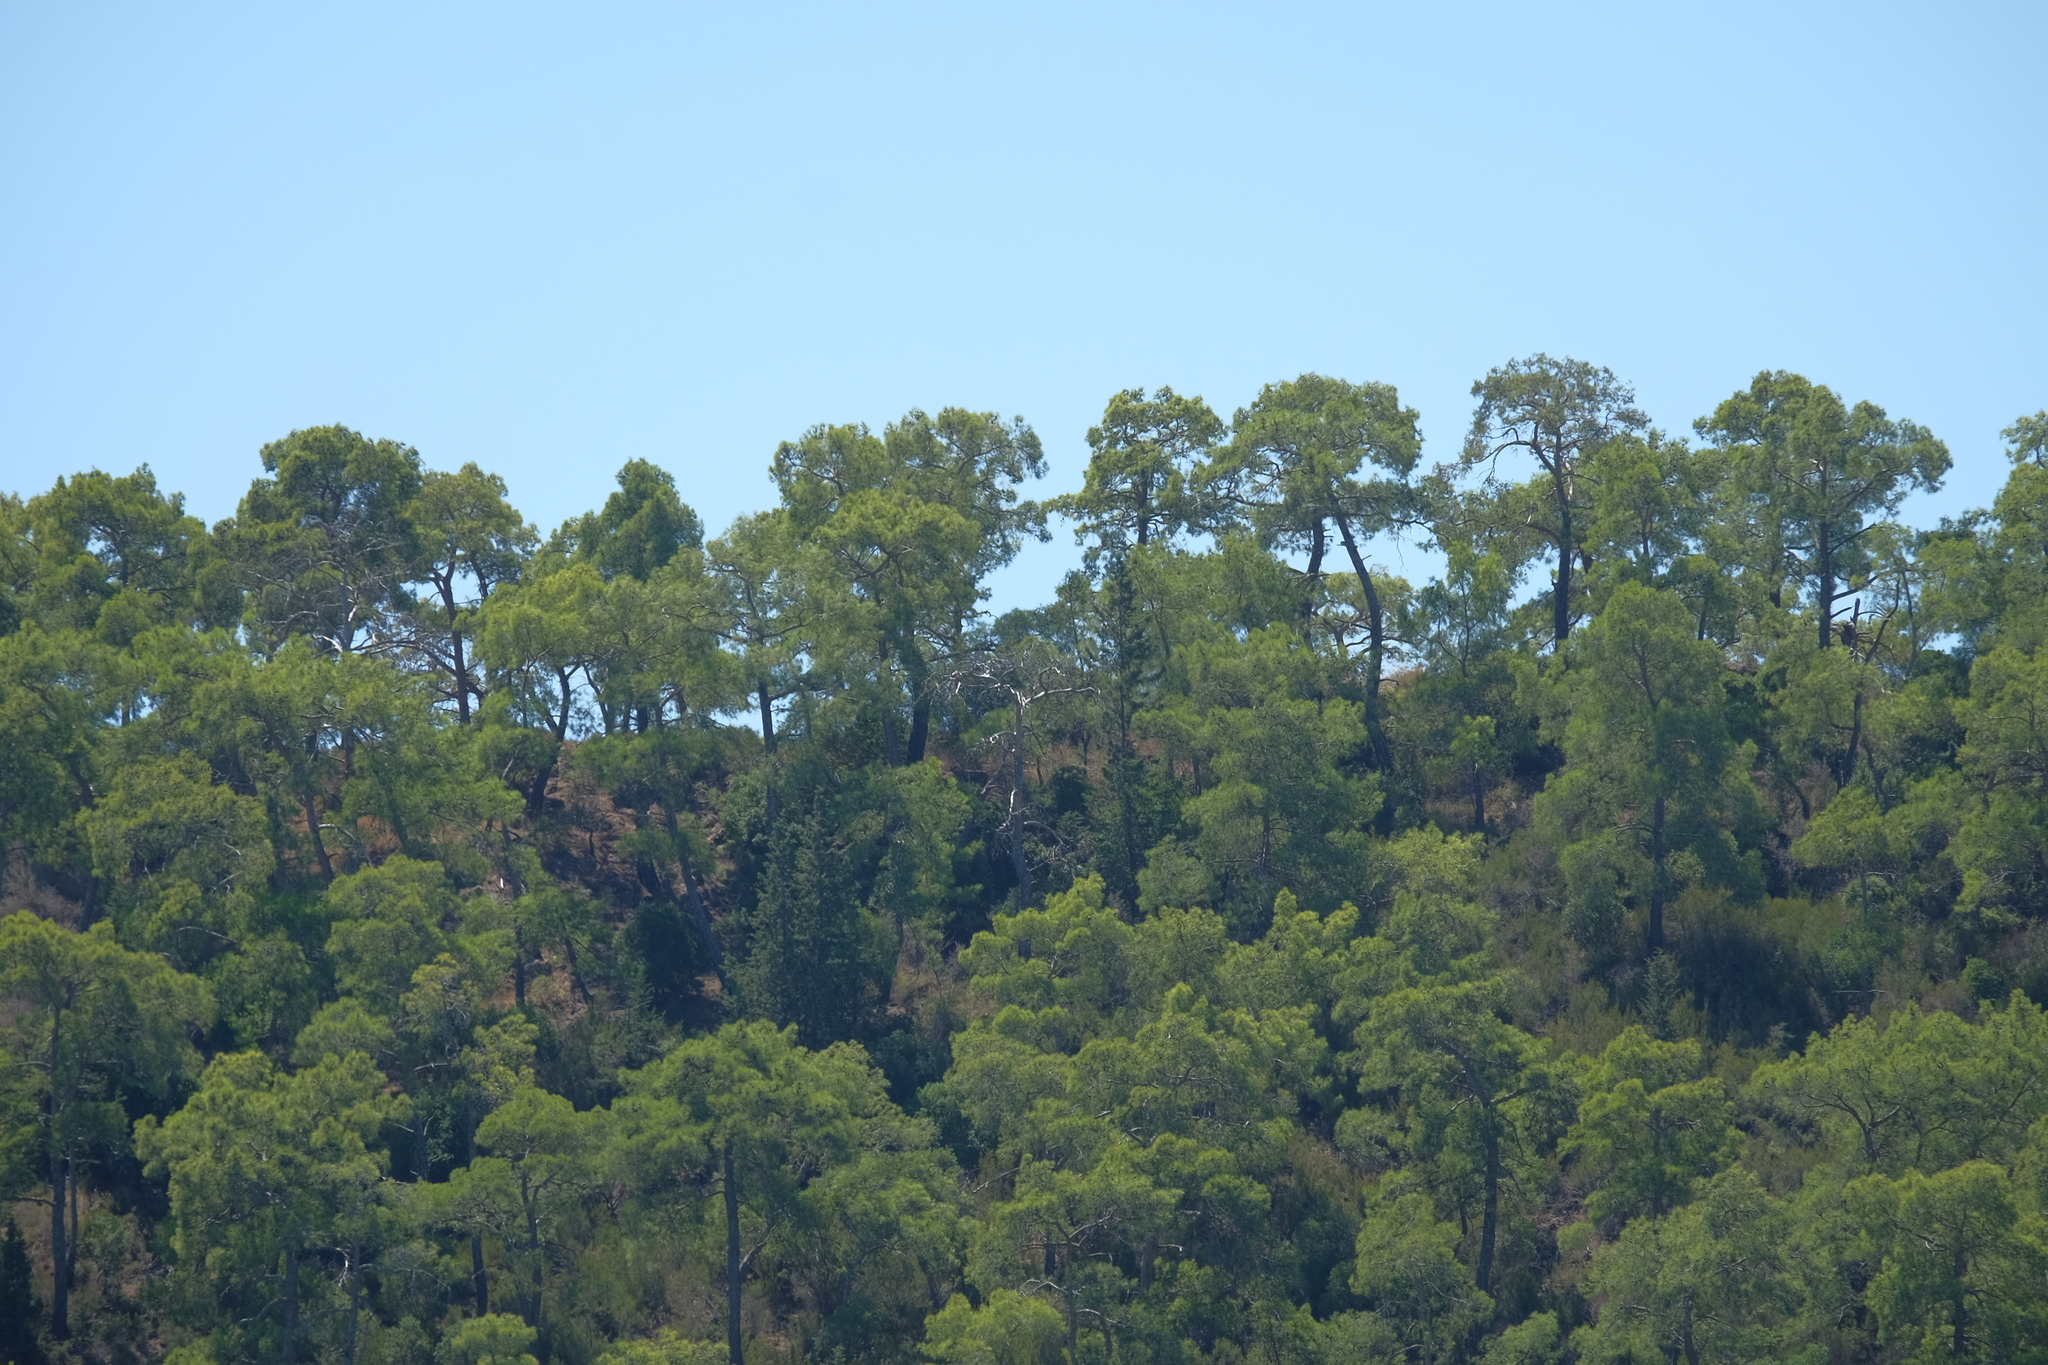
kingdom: Plantae
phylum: Tracheophyta
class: Pinopsida
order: Pinales
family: Pinaceae
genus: Pinus
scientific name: Pinus brutia
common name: Turkish pine
